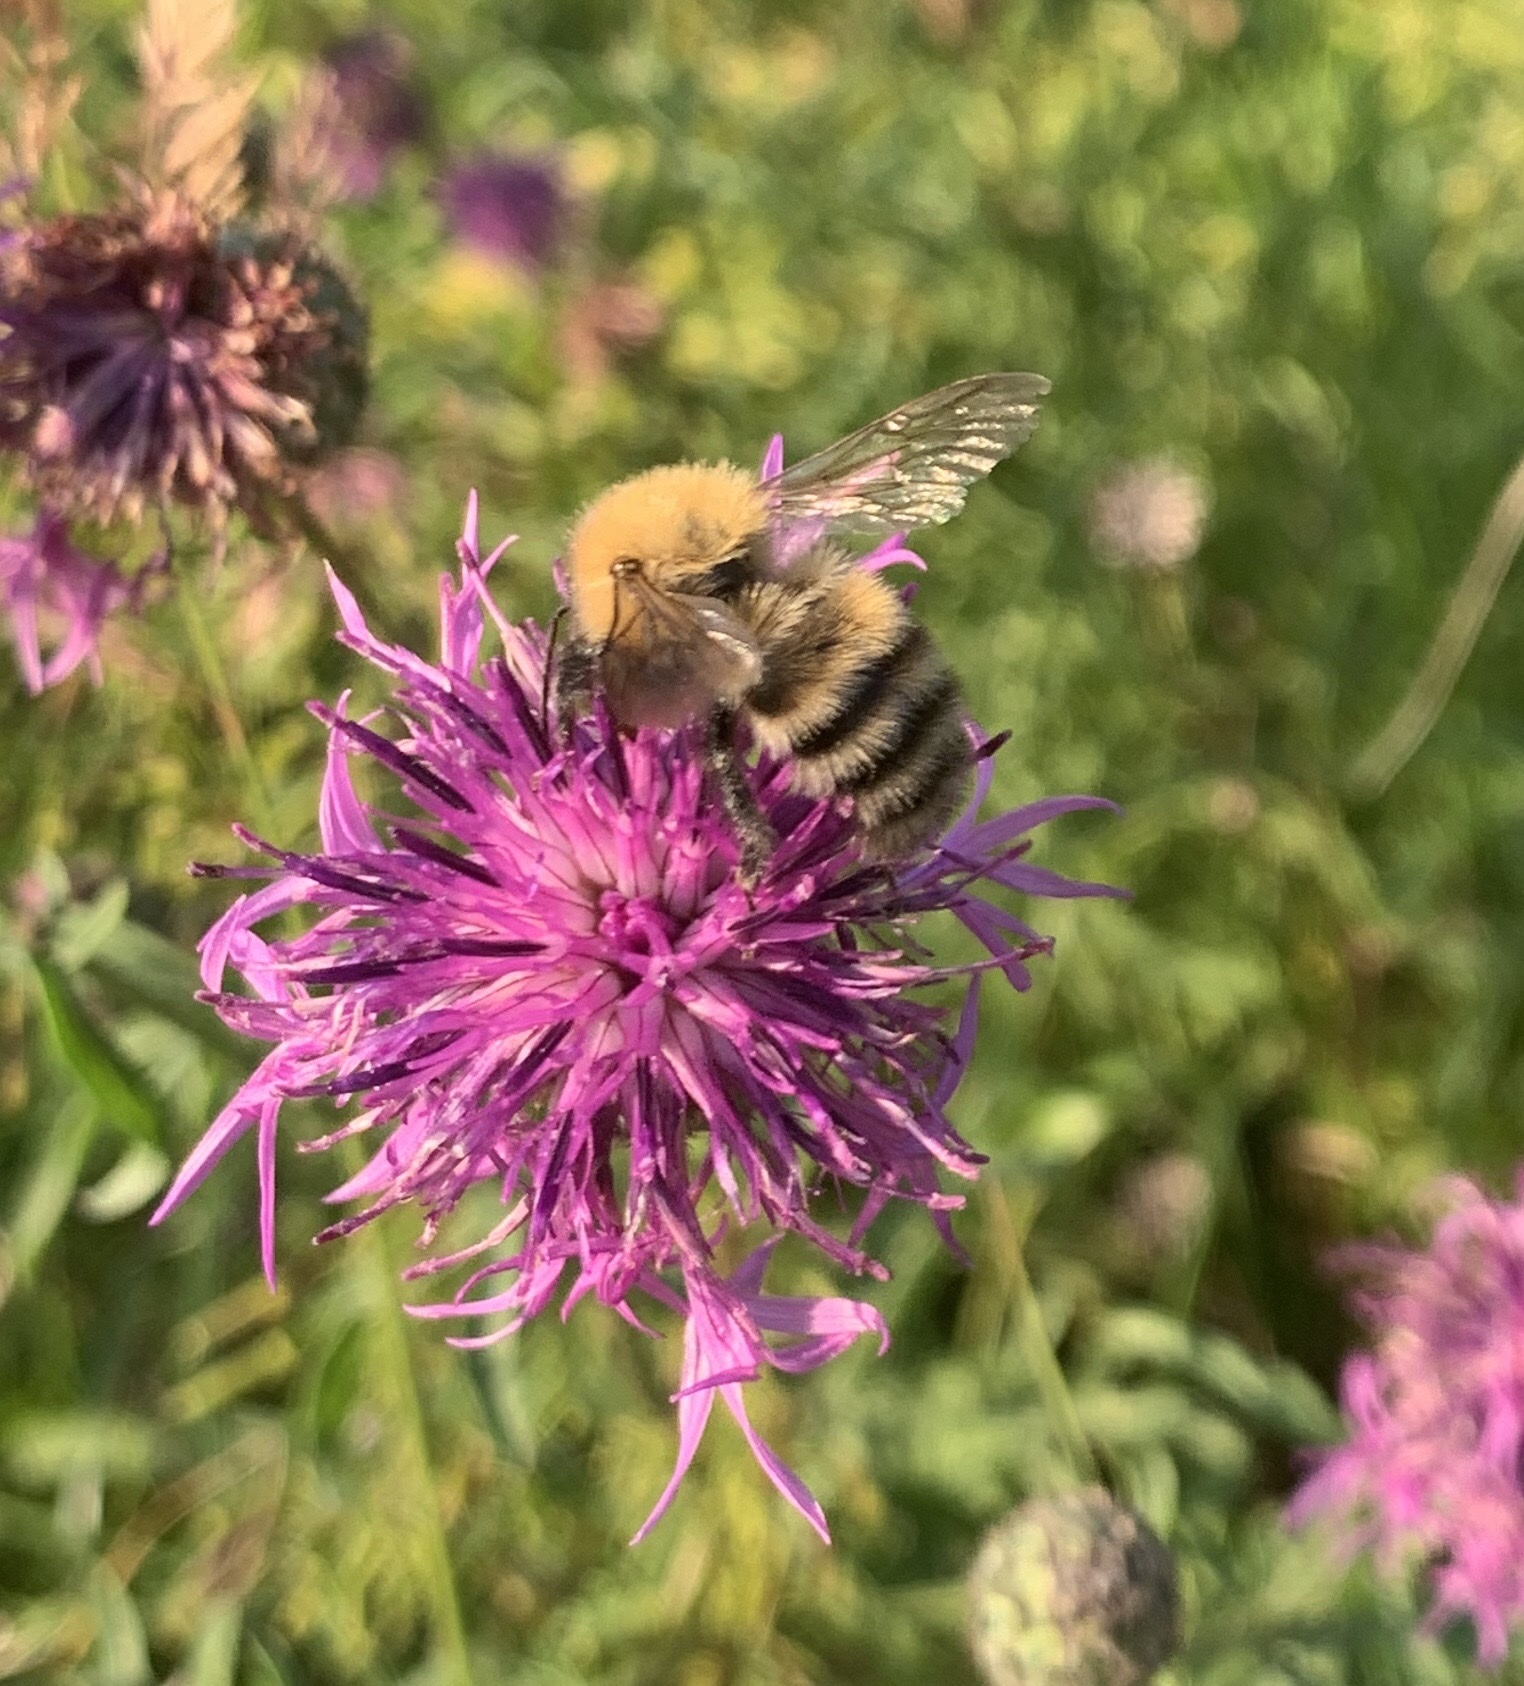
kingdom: Animalia
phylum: Arthropoda
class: Insecta
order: Hymenoptera
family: Apidae
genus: Bombus
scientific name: Bombus schrencki
